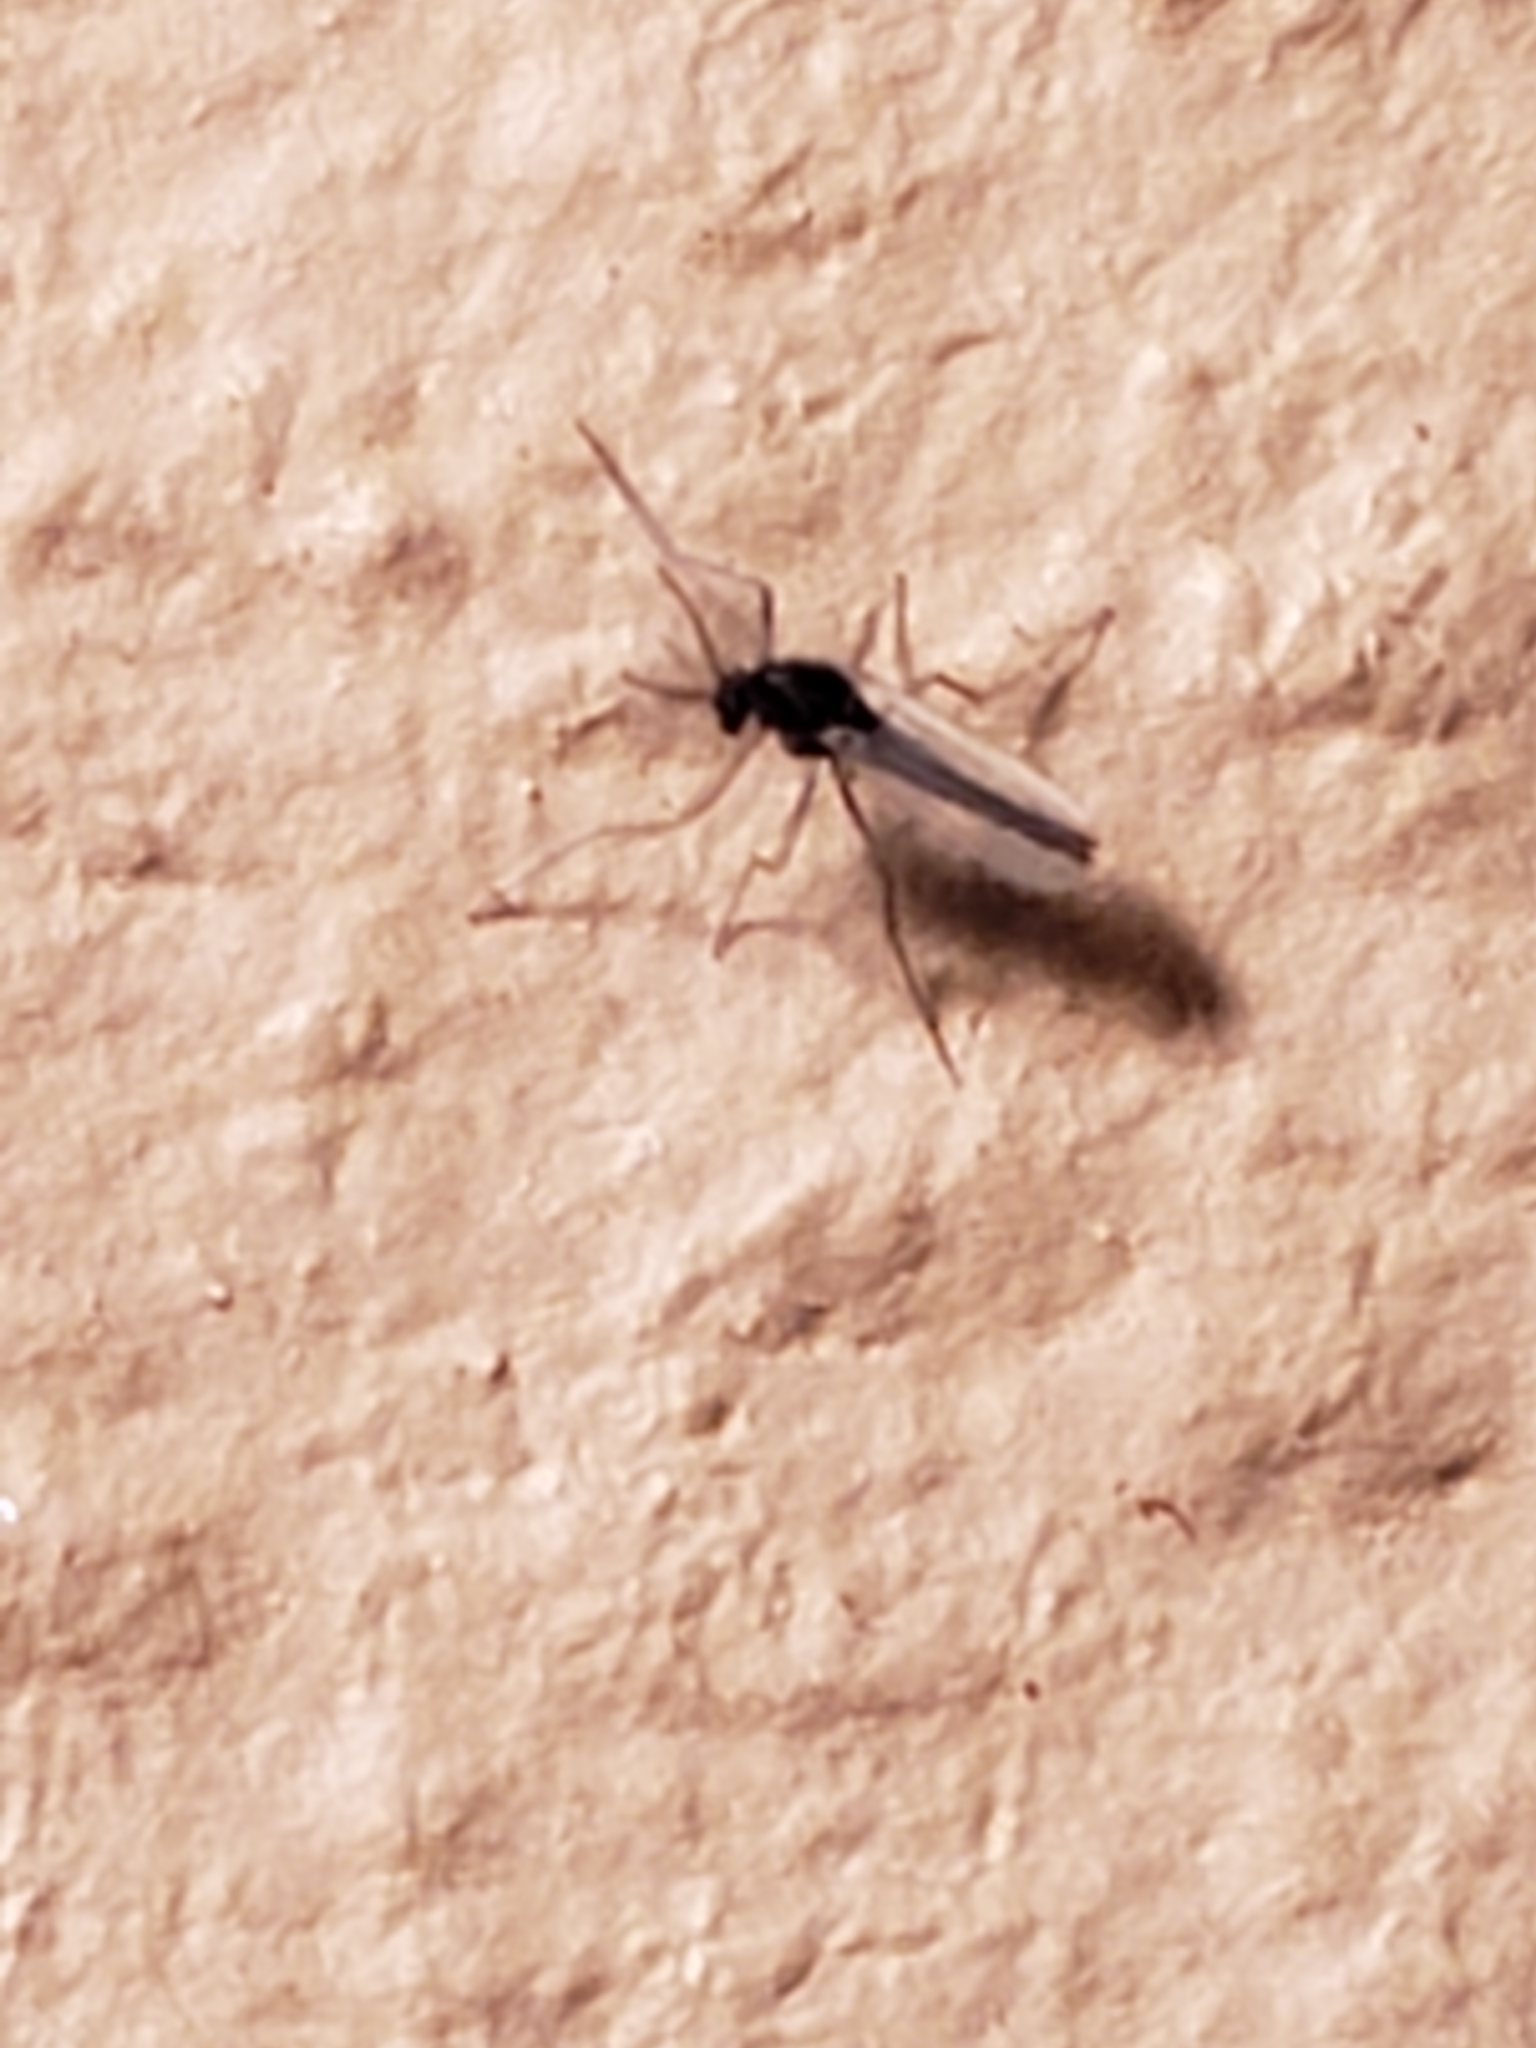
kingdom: Animalia
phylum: Arthropoda
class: Insecta
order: Diptera
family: Chironomidae
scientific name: Chironomidae
